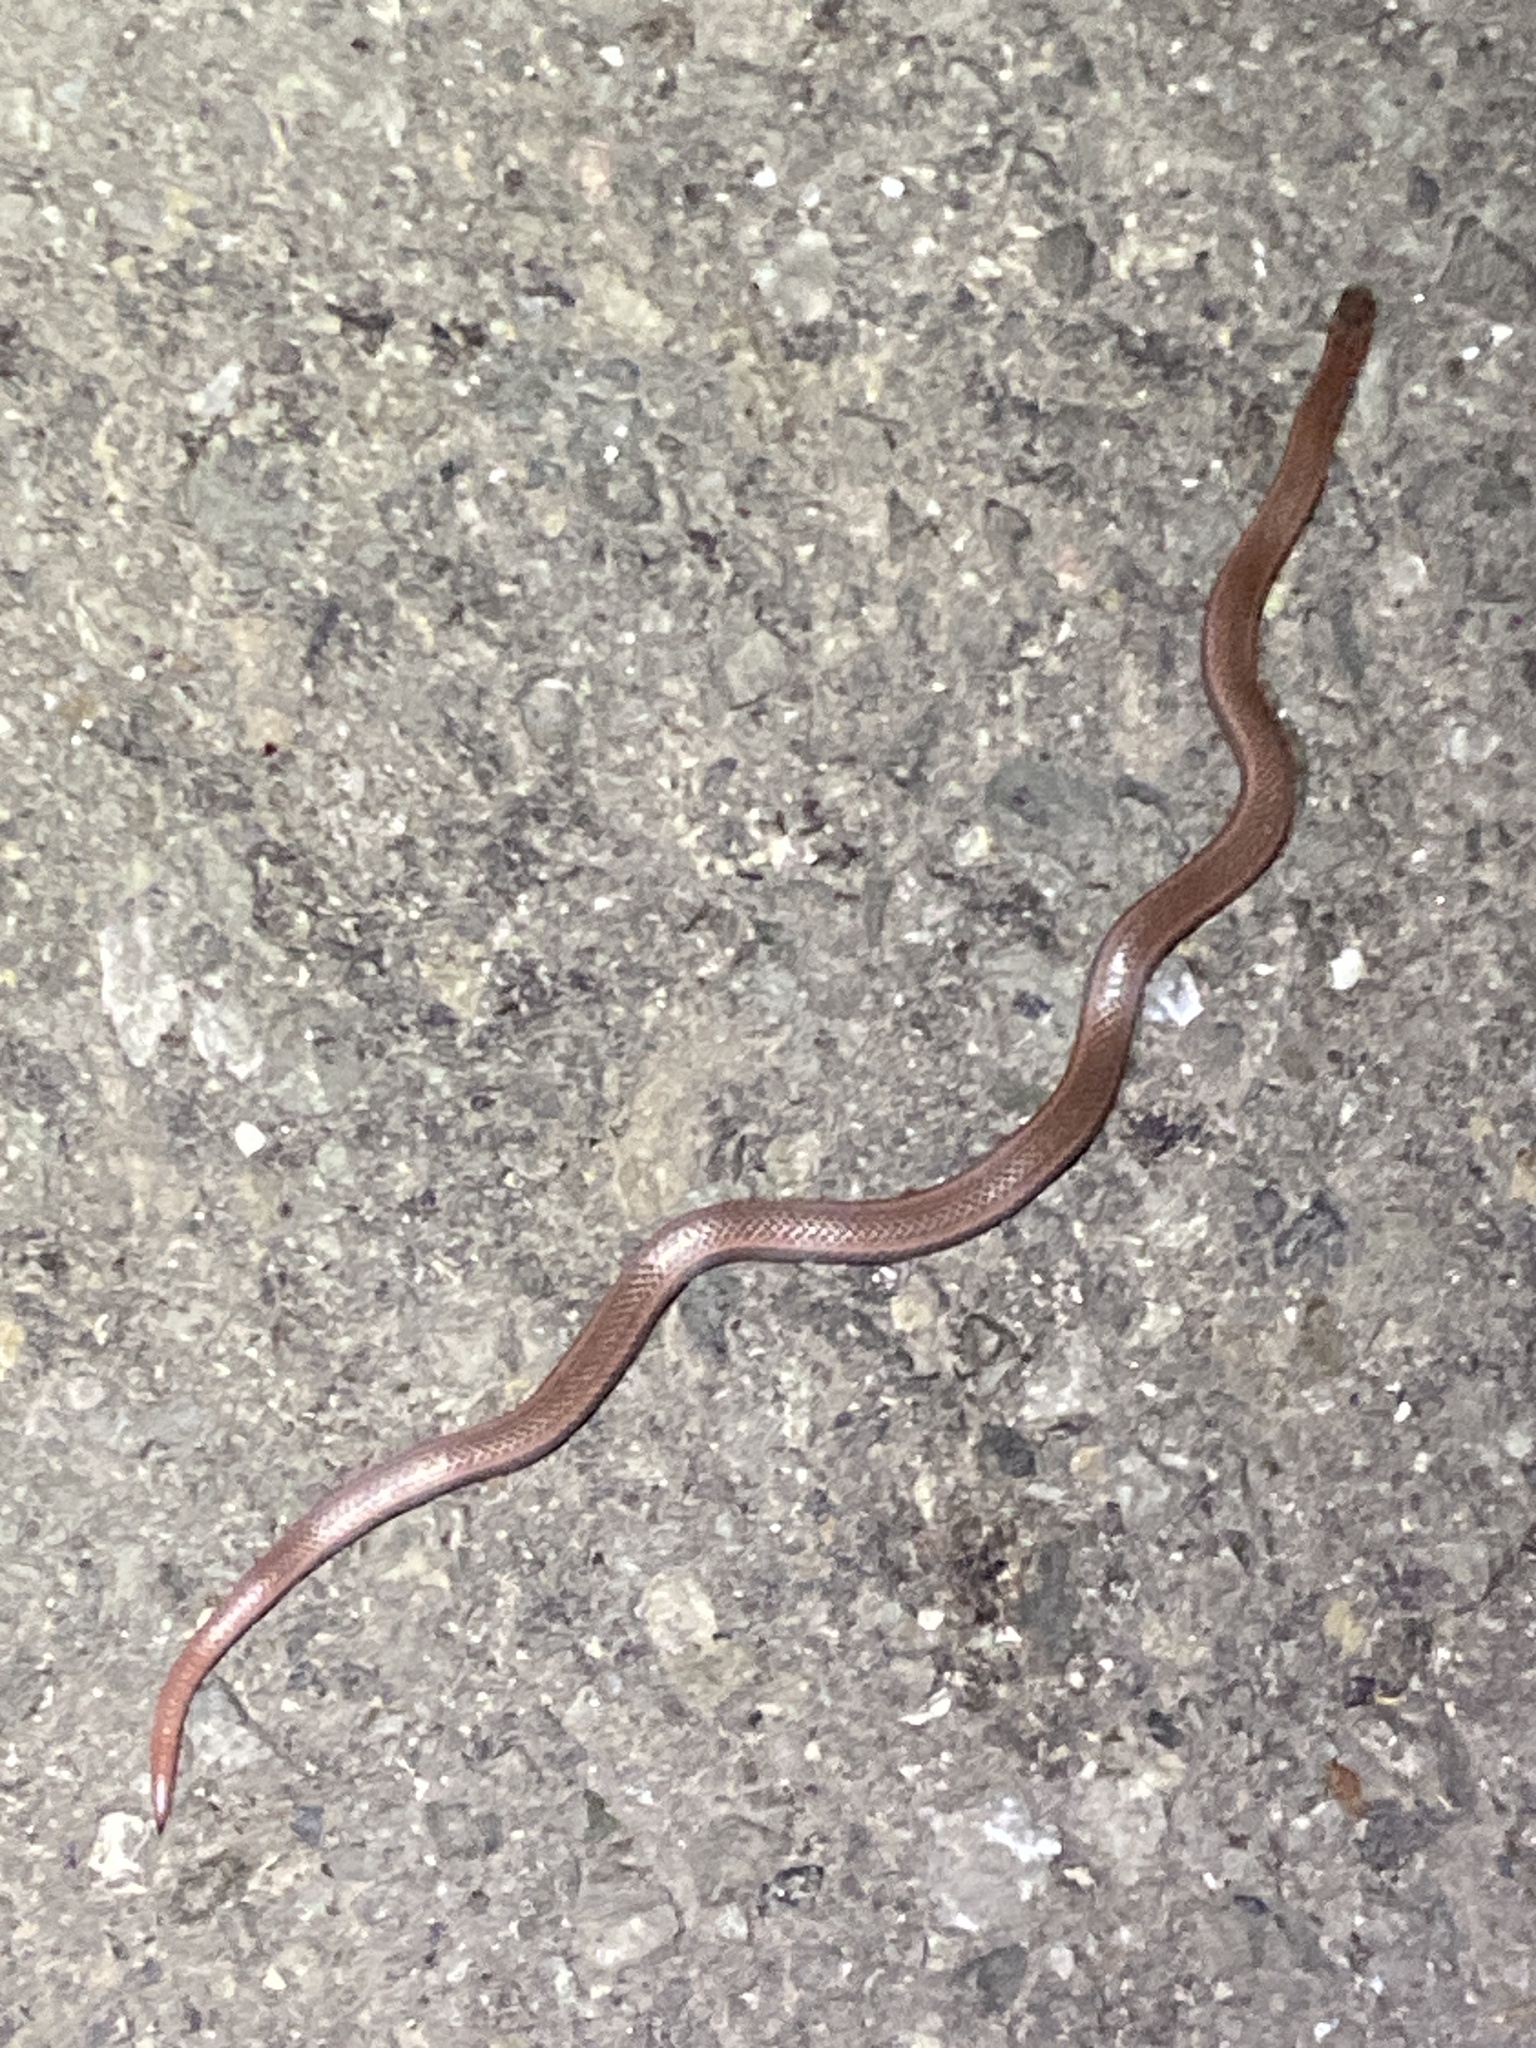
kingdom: Animalia
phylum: Chordata
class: Squamata
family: Colubridae
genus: Contia
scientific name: Contia tenuis
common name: Sharptail snake
